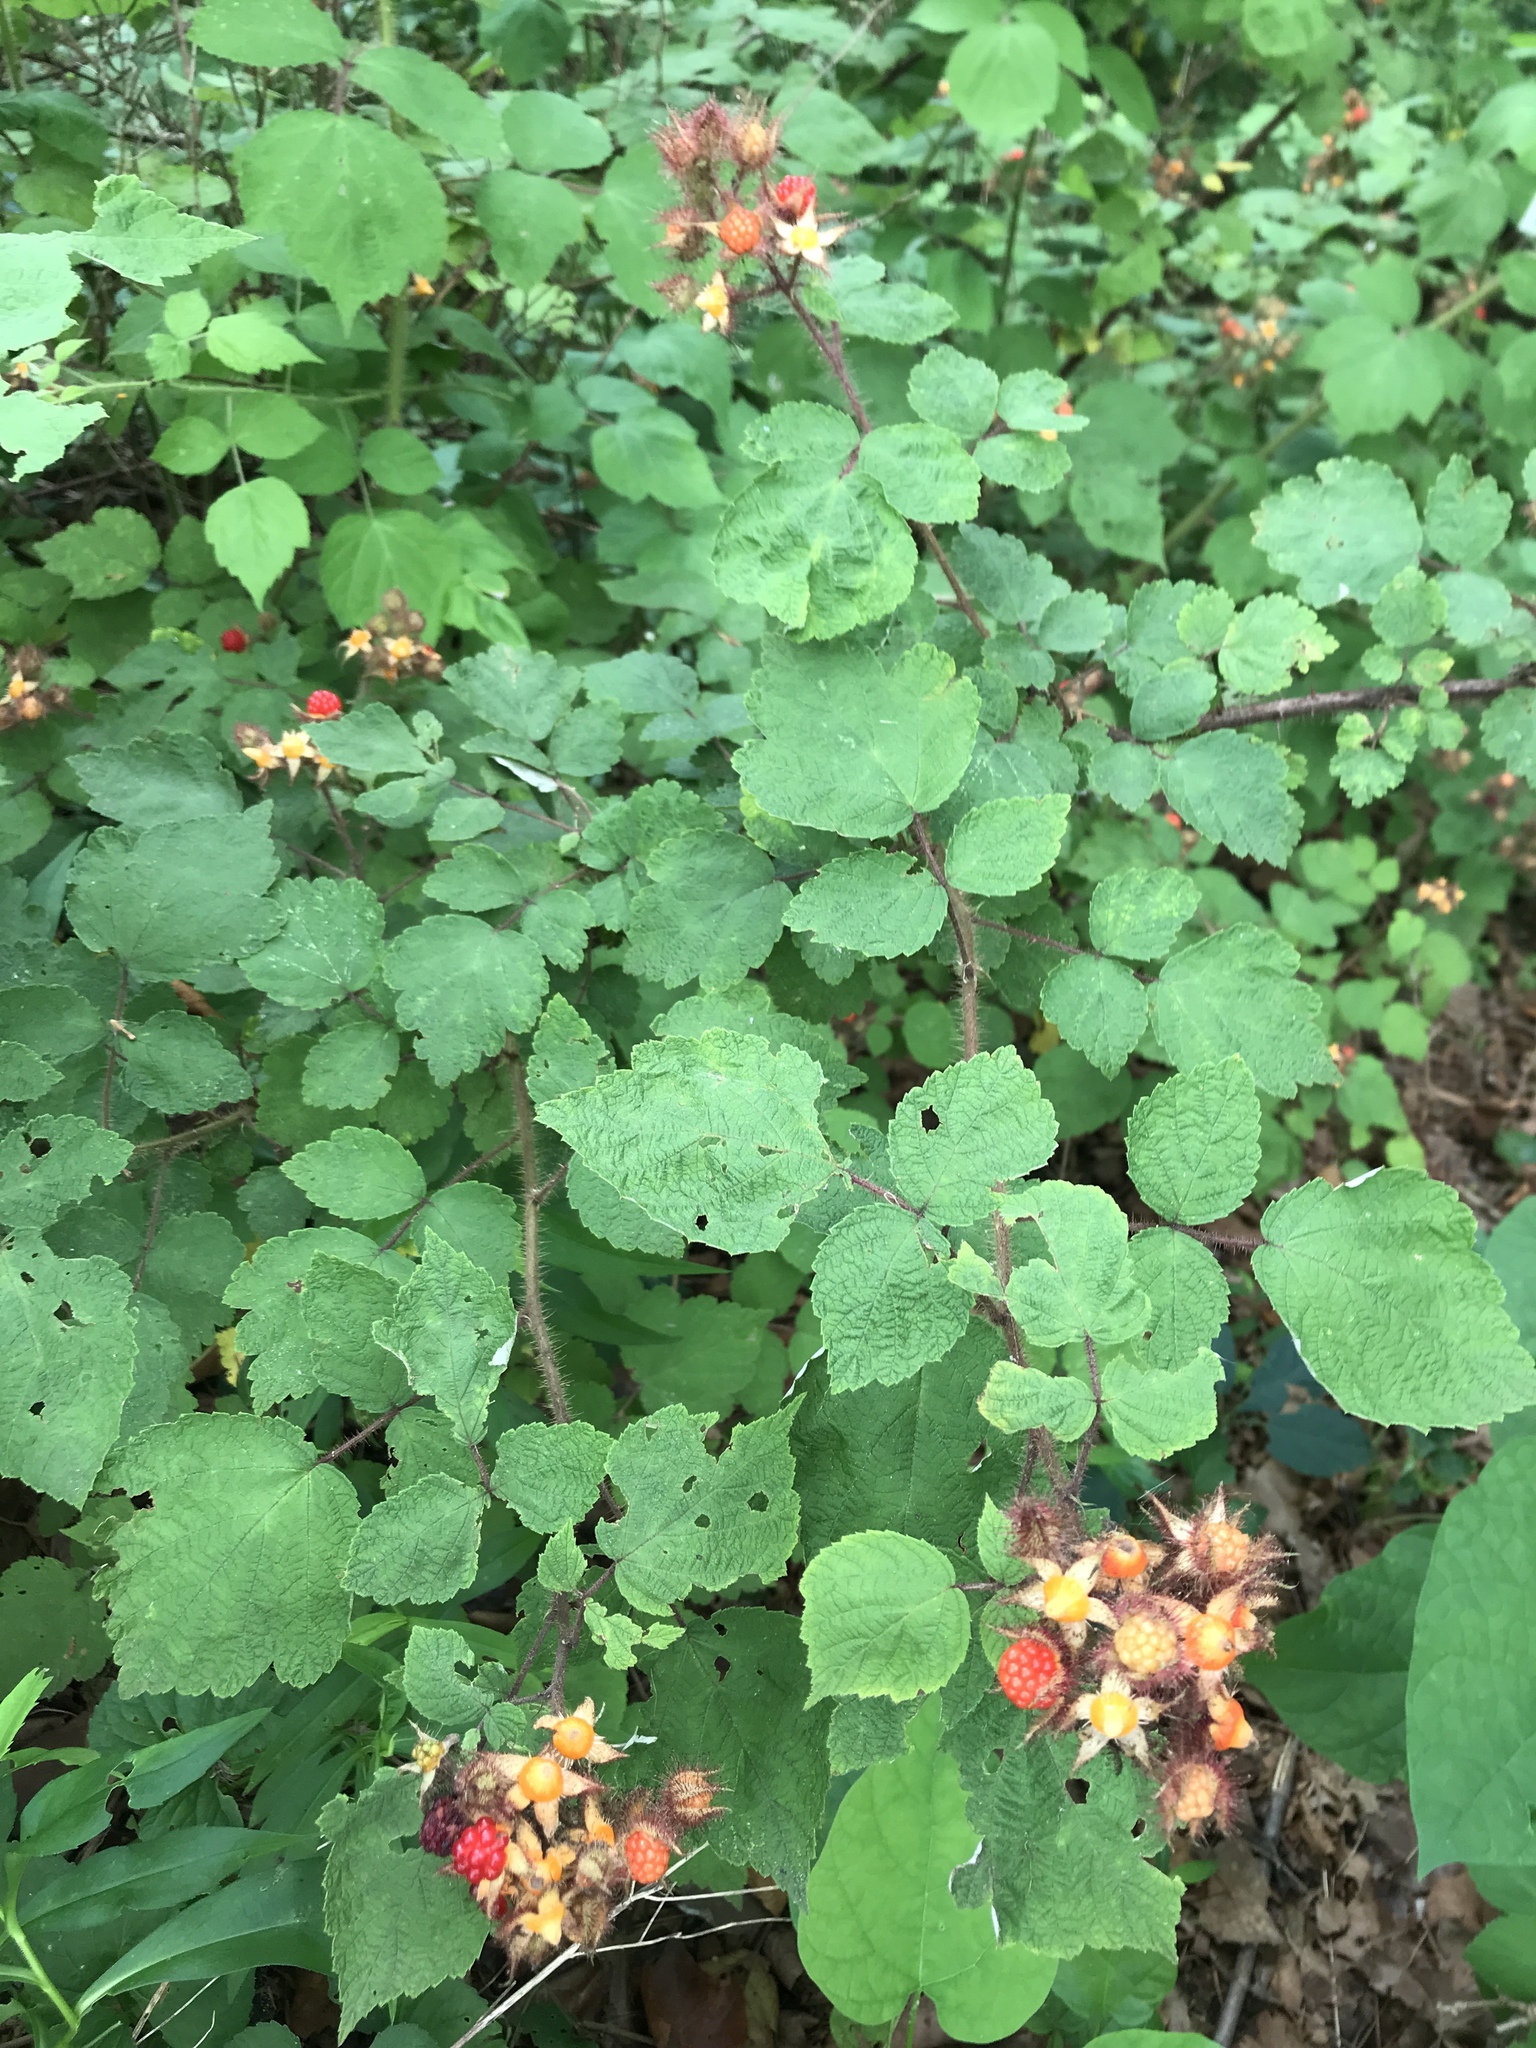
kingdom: Plantae
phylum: Tracheophyta
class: Magnoliopsida
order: Rosales
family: Rosaceae
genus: Rubus
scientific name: Rubus phoenicolasius
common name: Japanese wineberry
